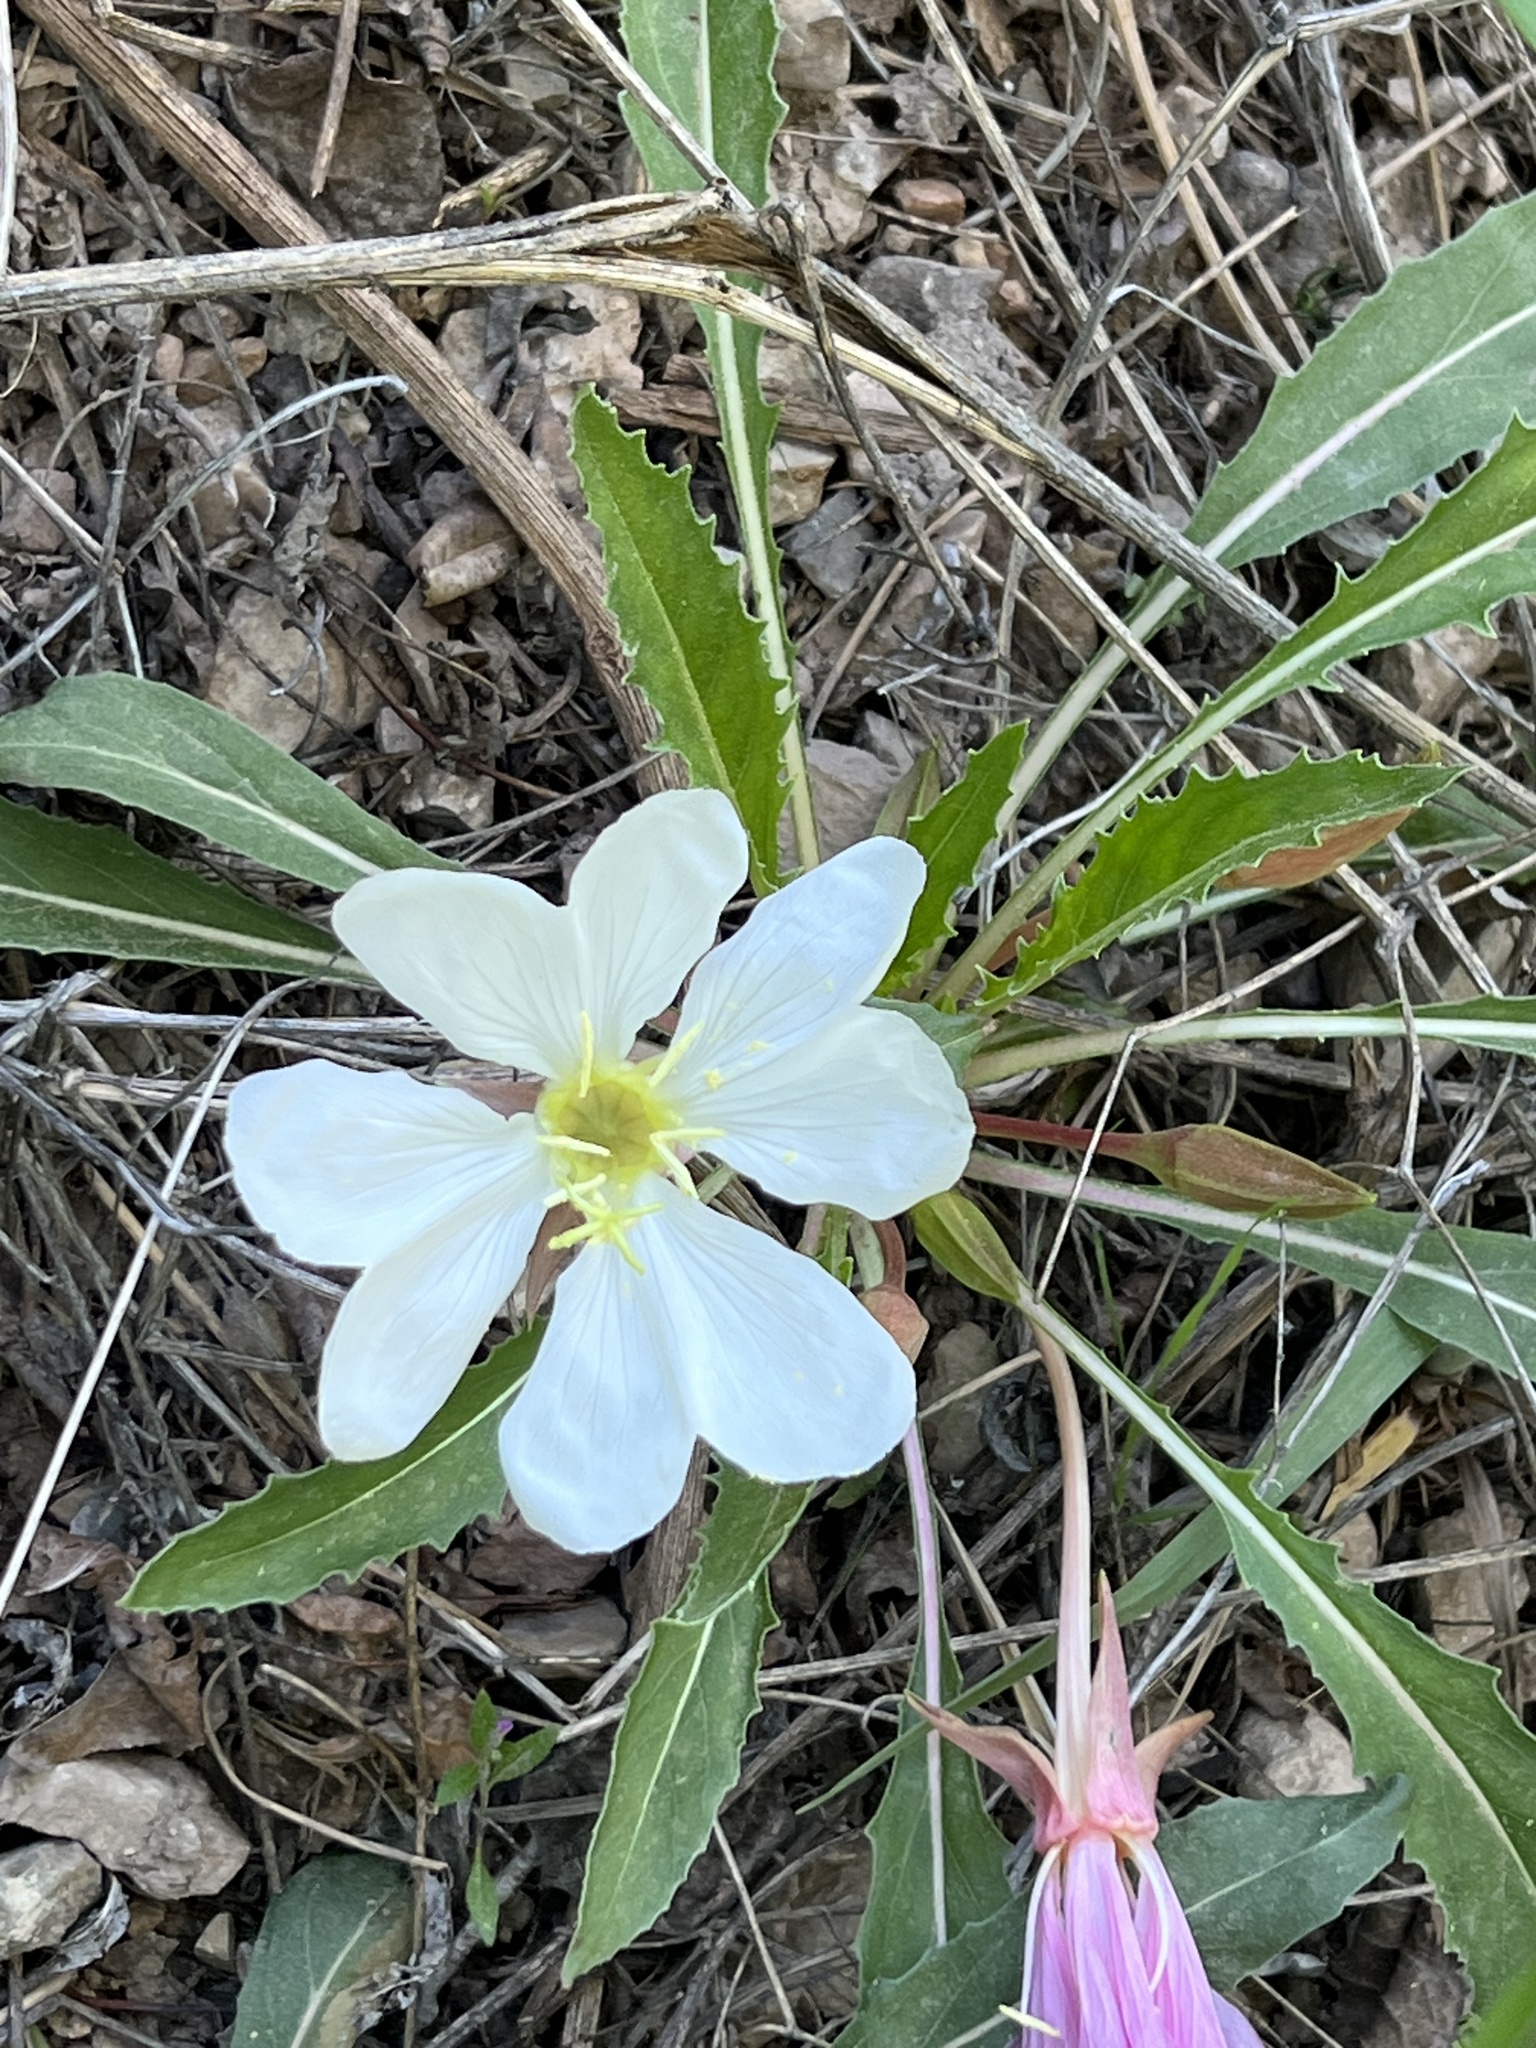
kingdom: Plantae
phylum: Tracheophyta
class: Magnoliopsida
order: Myrtales
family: Onagraceae
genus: Oenothera
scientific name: Oenothera cespitosa
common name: Tufted evening-primrose
